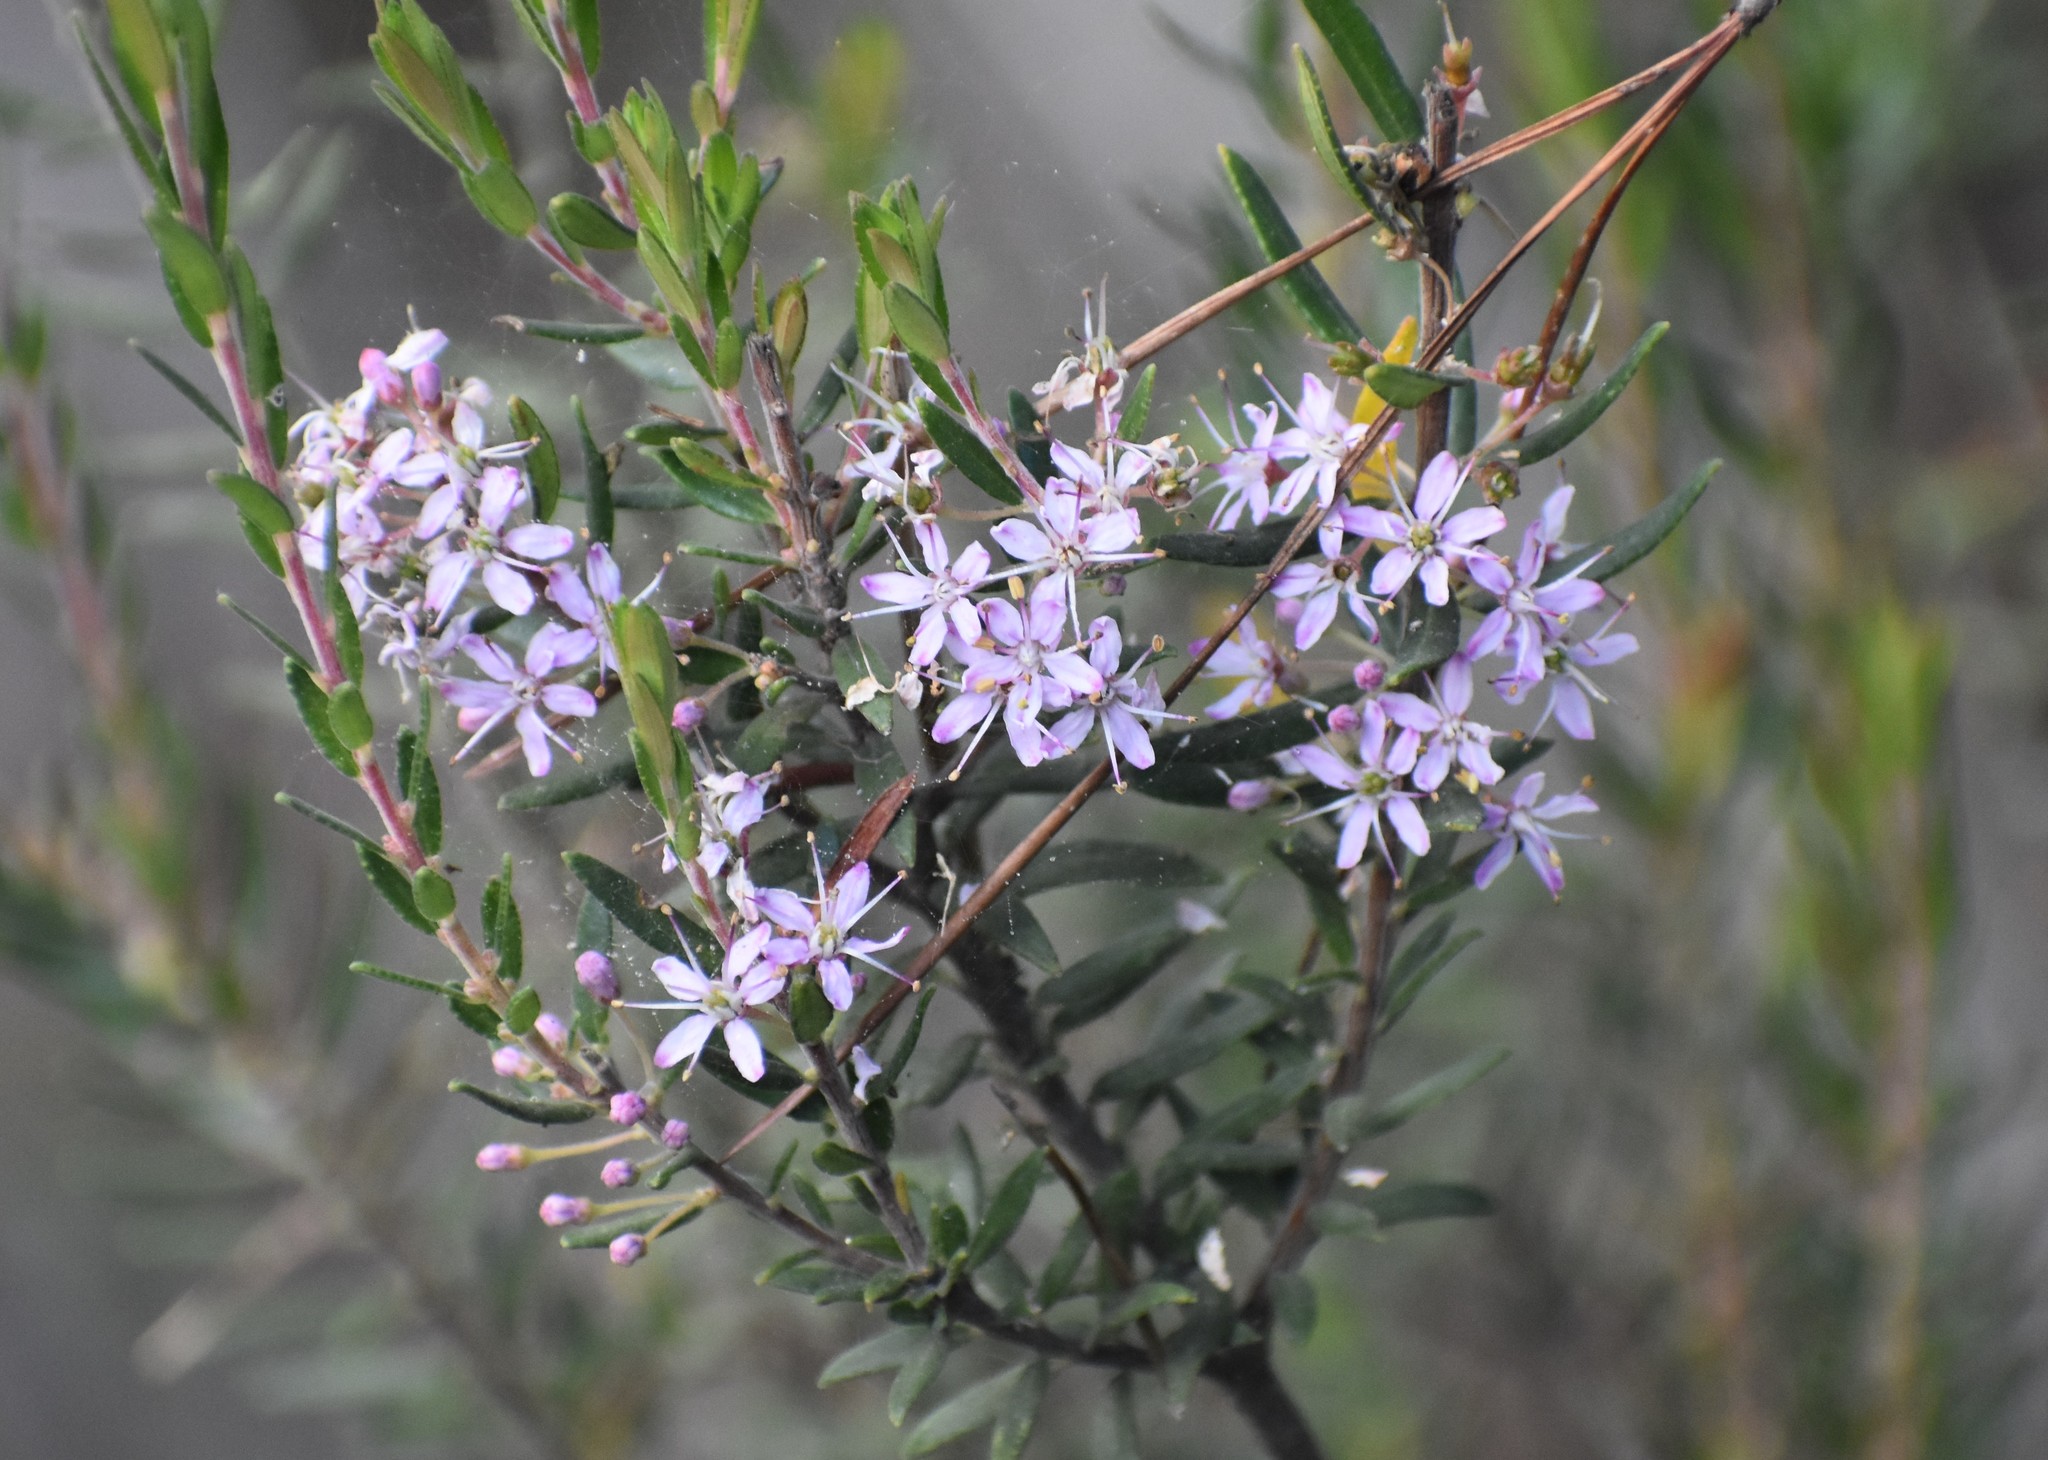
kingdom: Plantae
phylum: Tracheophyta
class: Magnoliopsida
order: Sapindales
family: Rutaceae
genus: Agathosma
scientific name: Agathosma ovata
